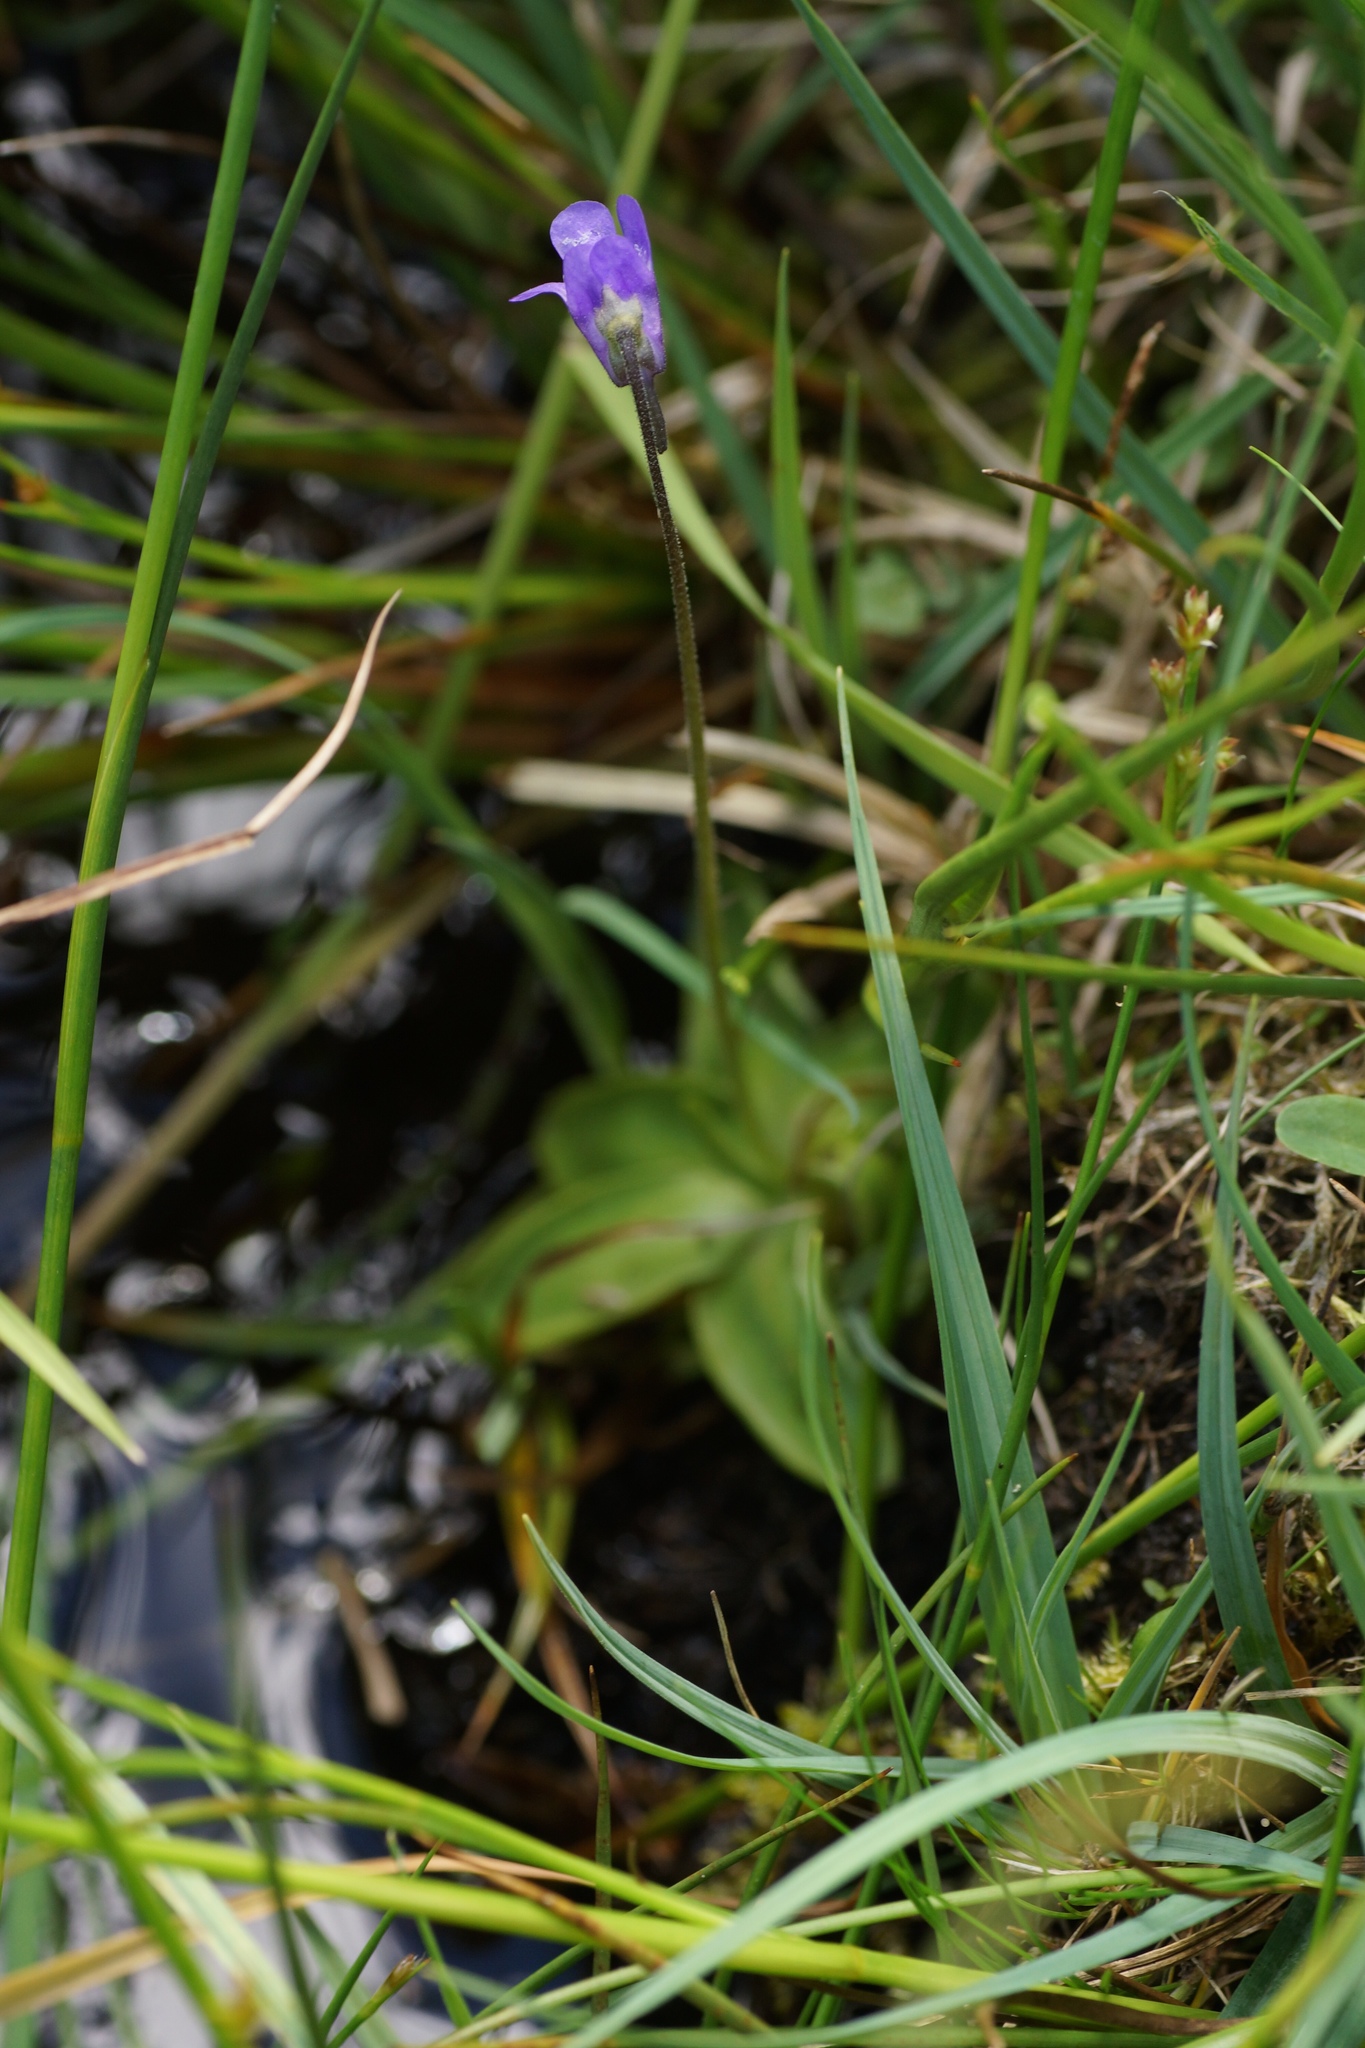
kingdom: Plantae
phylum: Tracheophyta
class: Magnoliopsida
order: Lamiales
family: Lentibulariaceae
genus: Pinguicula
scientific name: Pinguicula vulgaris
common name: Common butterwort
